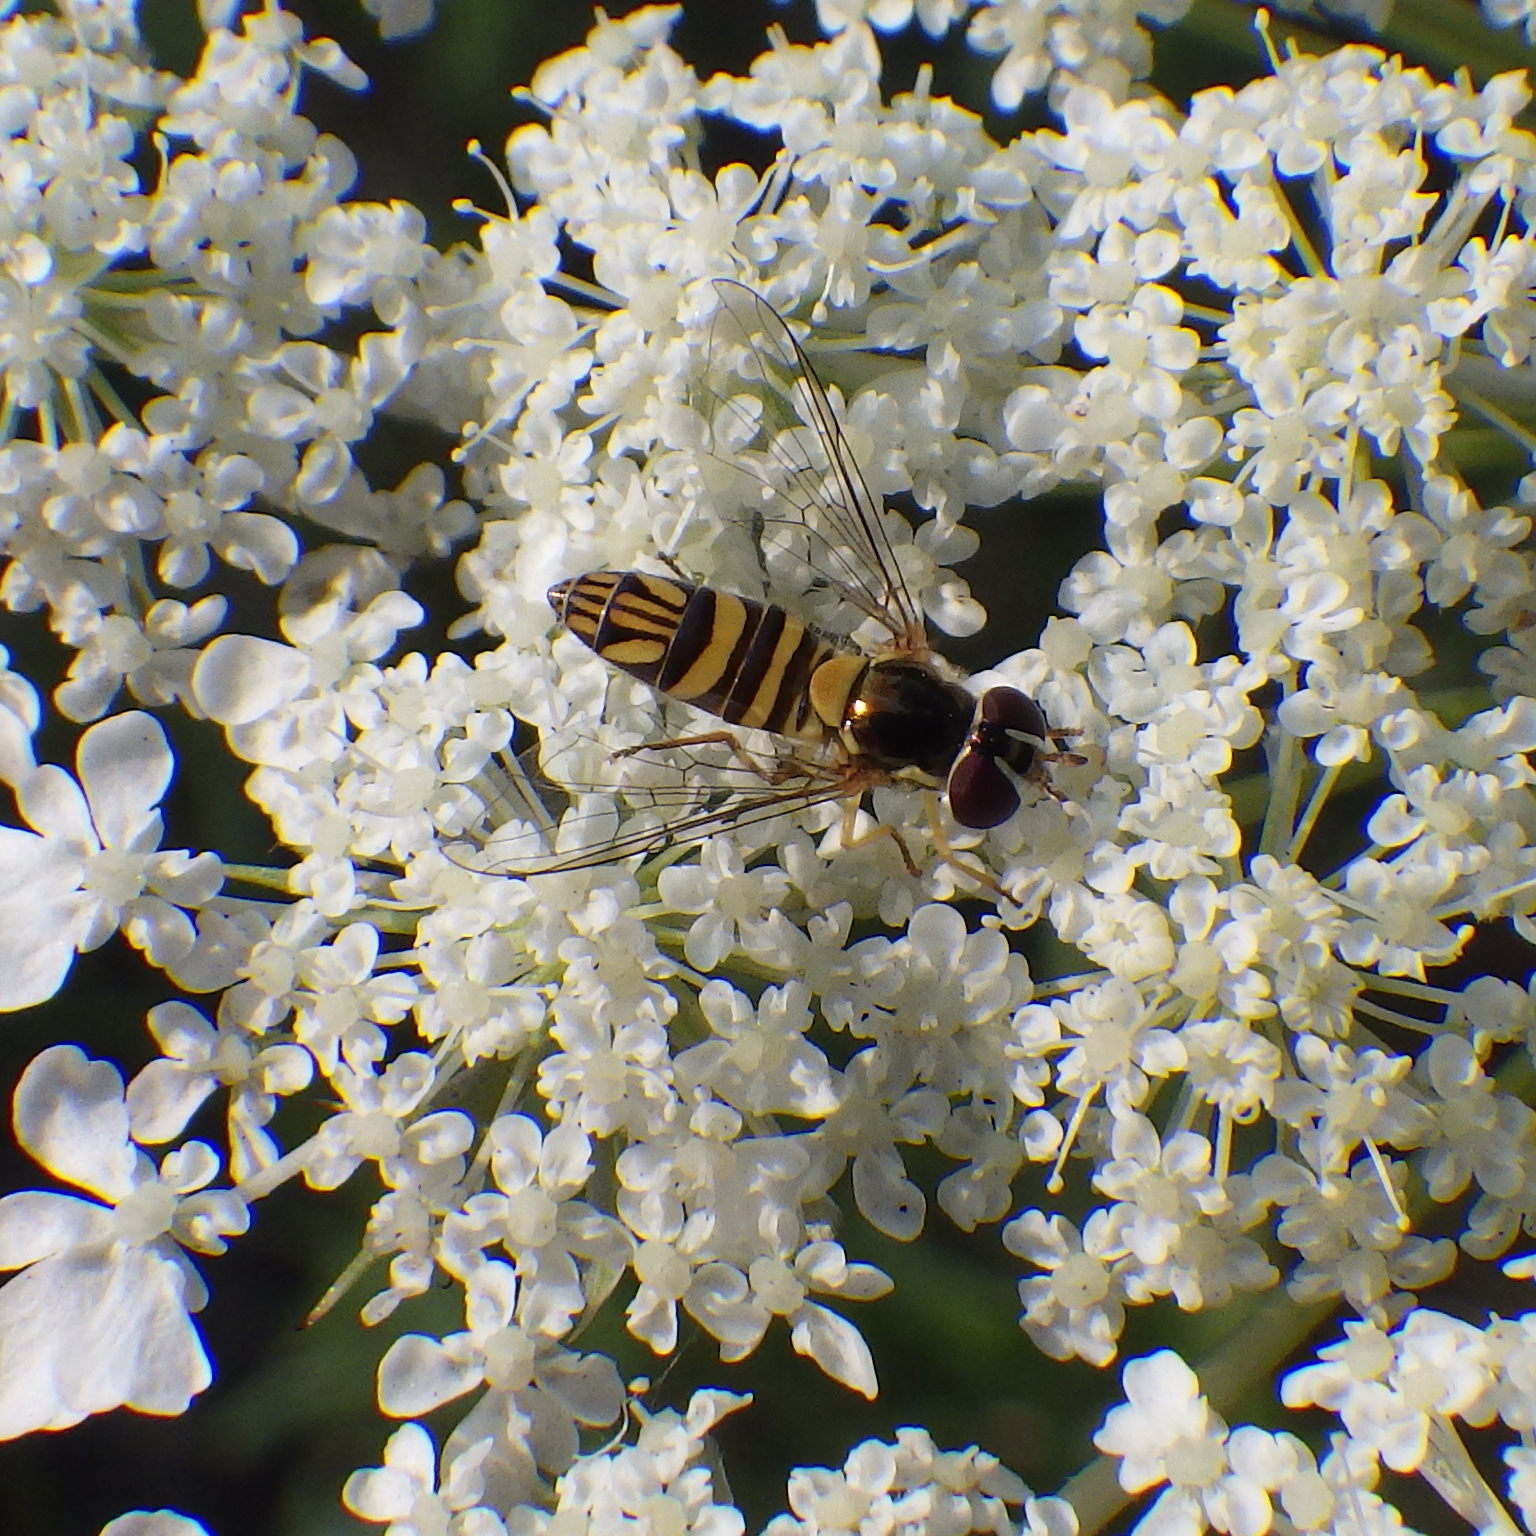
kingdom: Animalia
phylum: Arthropoda
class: Insecta
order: Diptera
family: Syrphidae
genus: Allograpta
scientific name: Allograpta obliqua
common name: Common oblique syrphid
